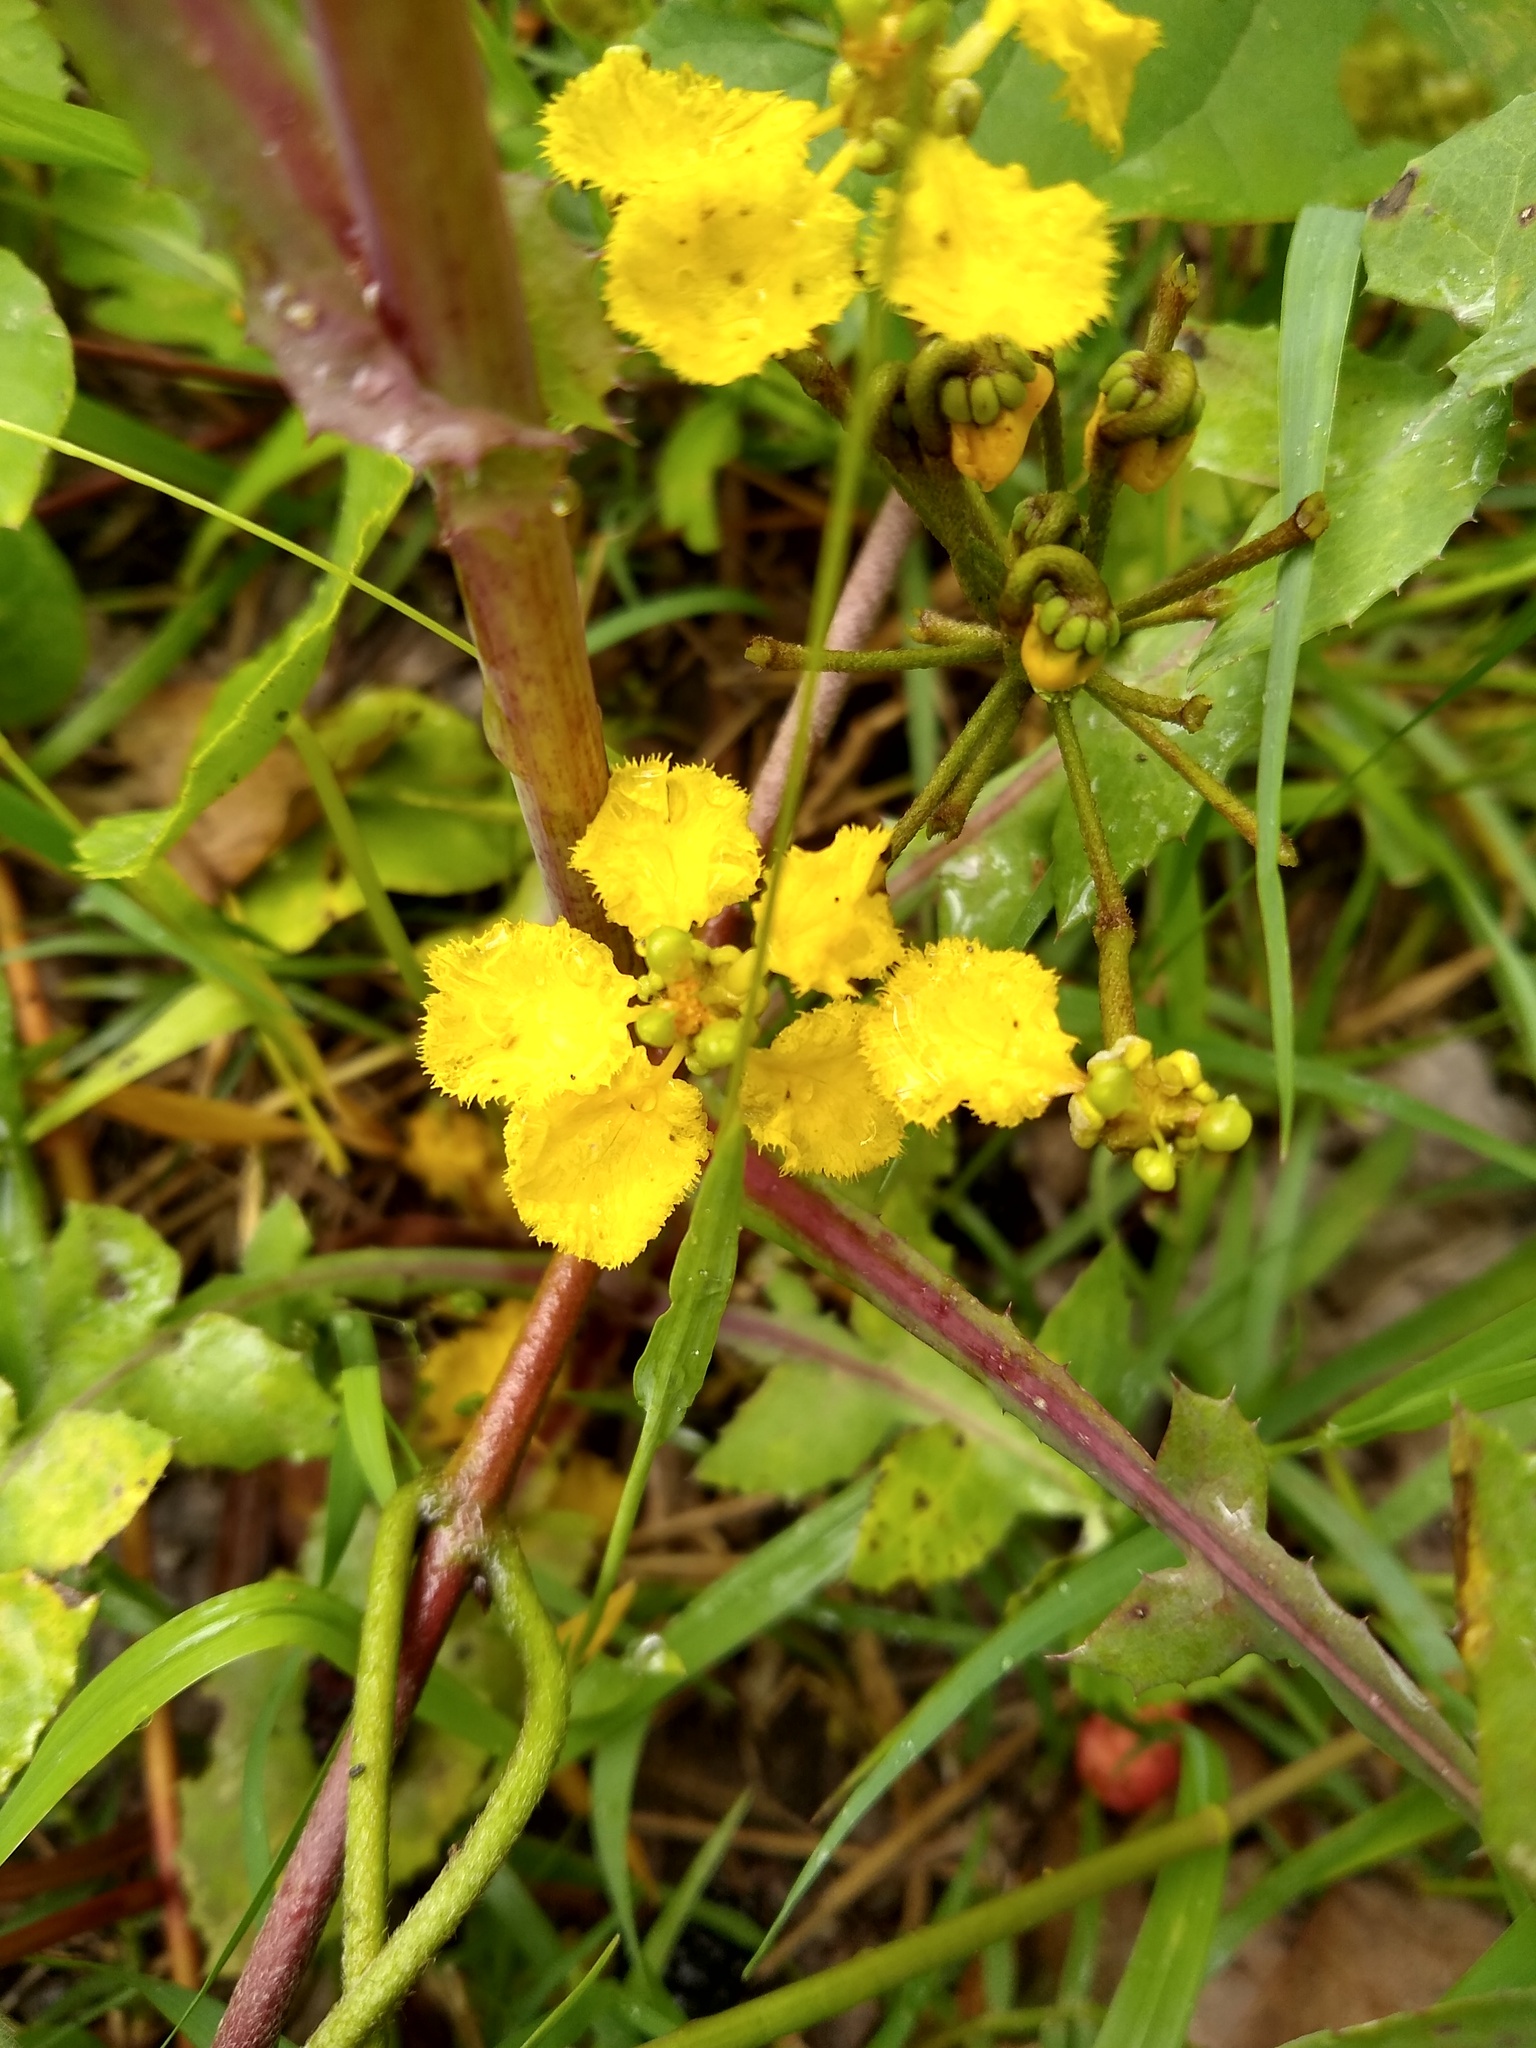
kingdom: Plantae
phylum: Tracheophyta
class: Magnoliopsida
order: Malpighiales
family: Malpighiaceae
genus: Stigmaphyllon
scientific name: Stigmaphyllon bonariense
